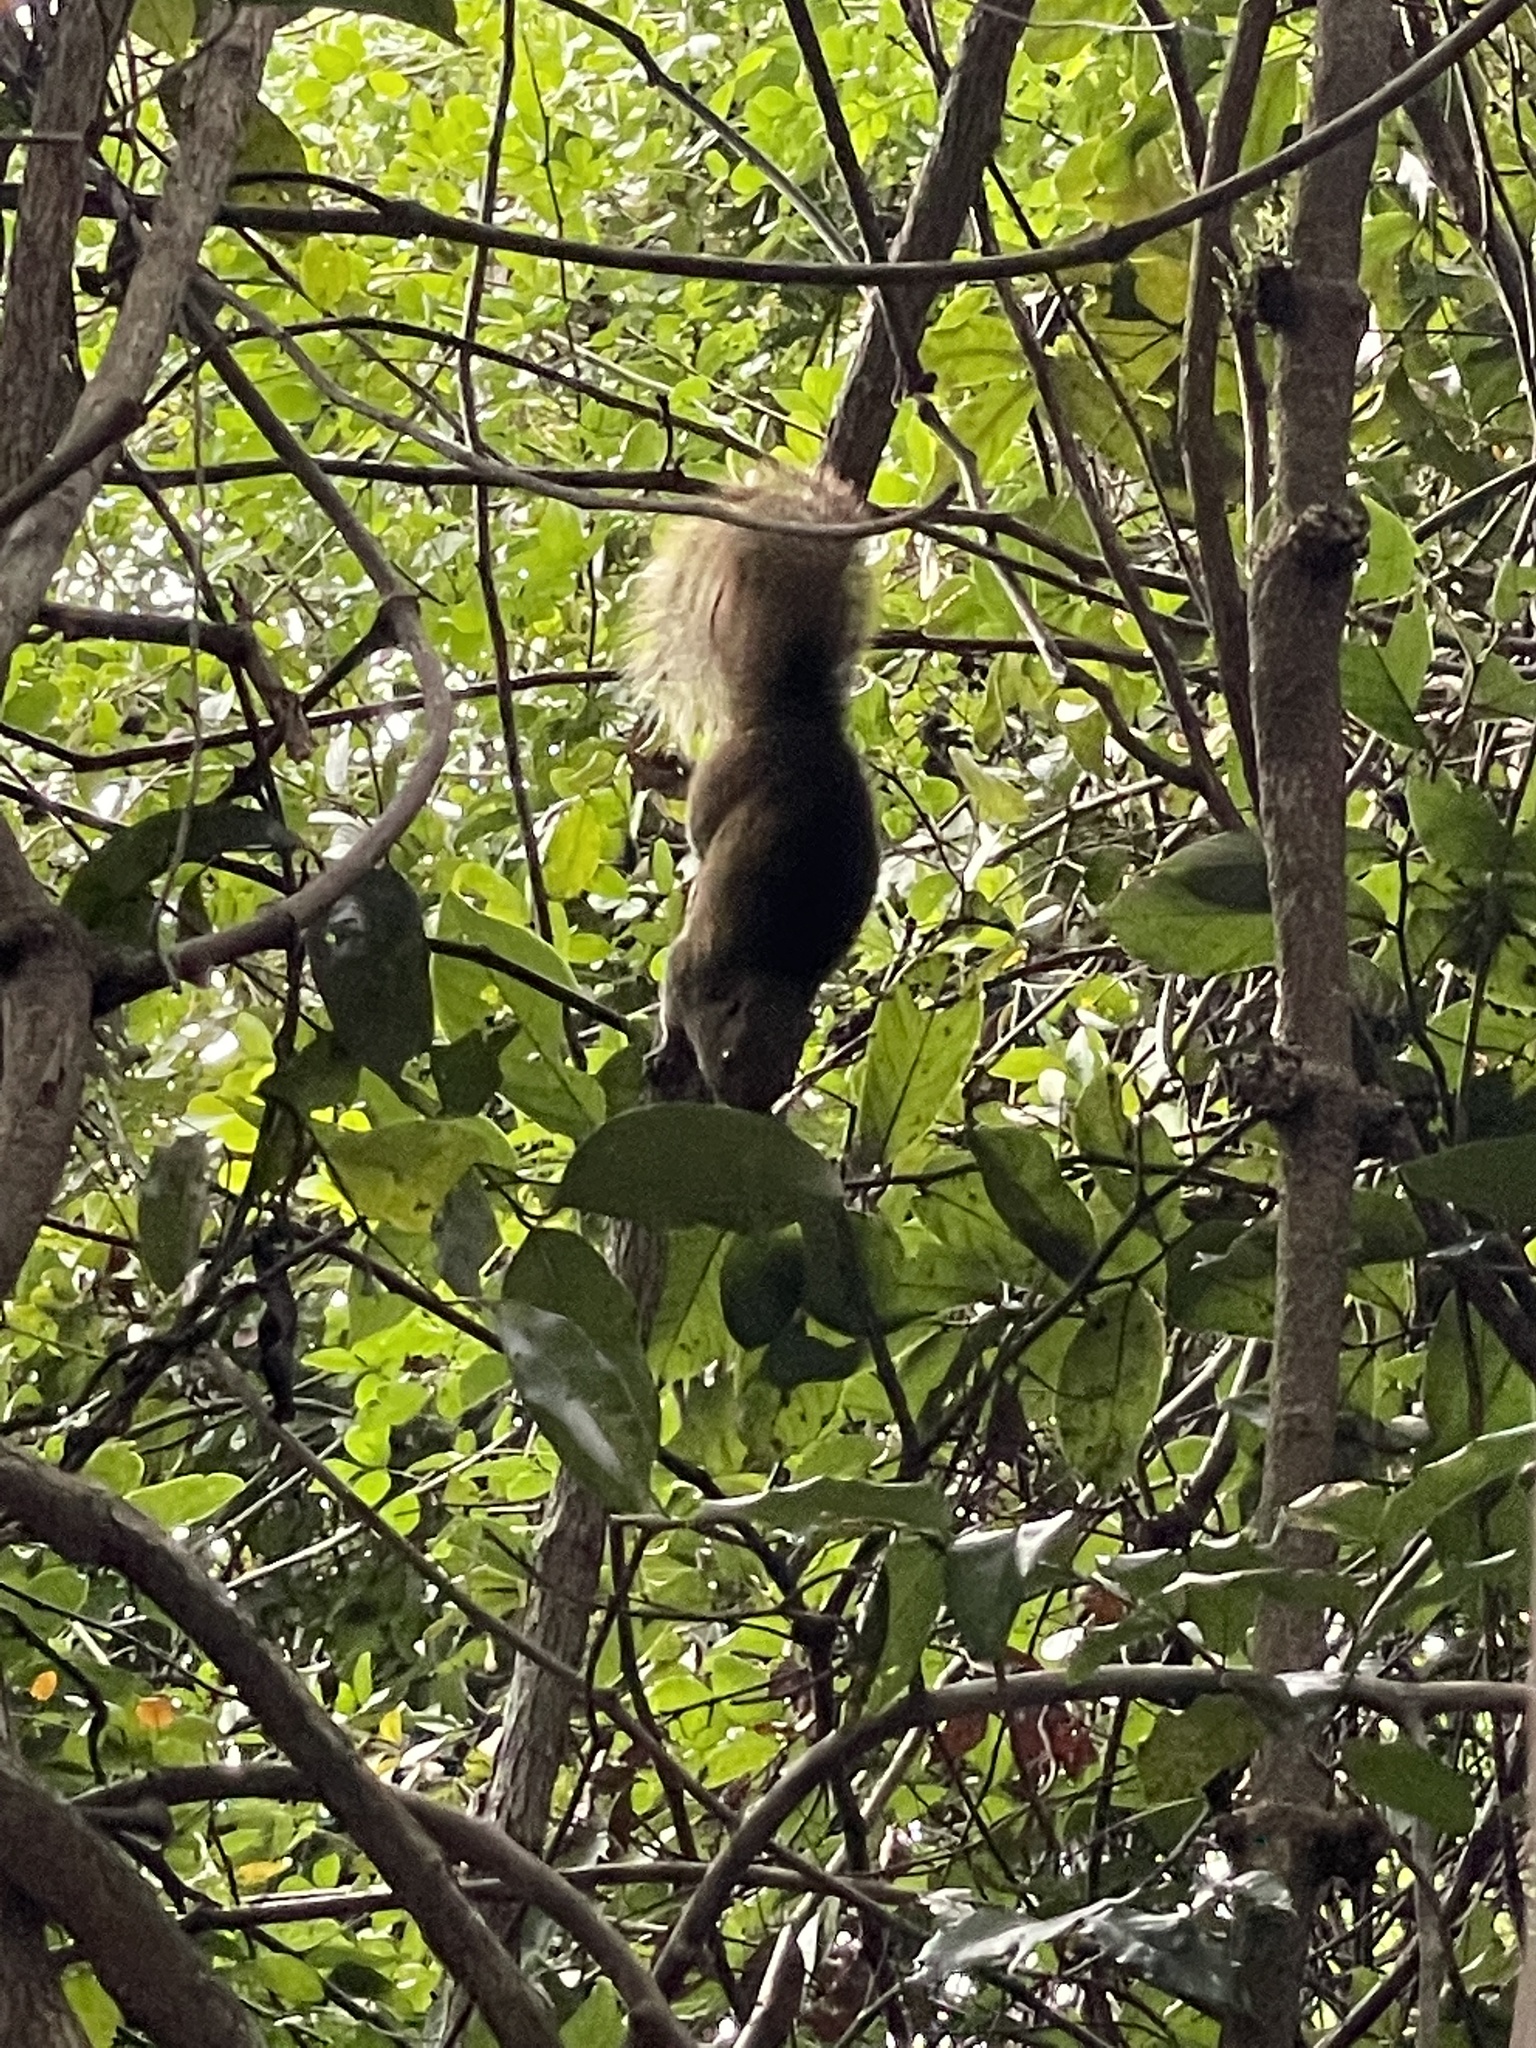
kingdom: Animalia
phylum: Chordata
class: Mammalia
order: Rodentia
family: Sciuridae
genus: Callosciurus
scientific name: Callosciurus erythraeus
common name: Pallas's squirrel
